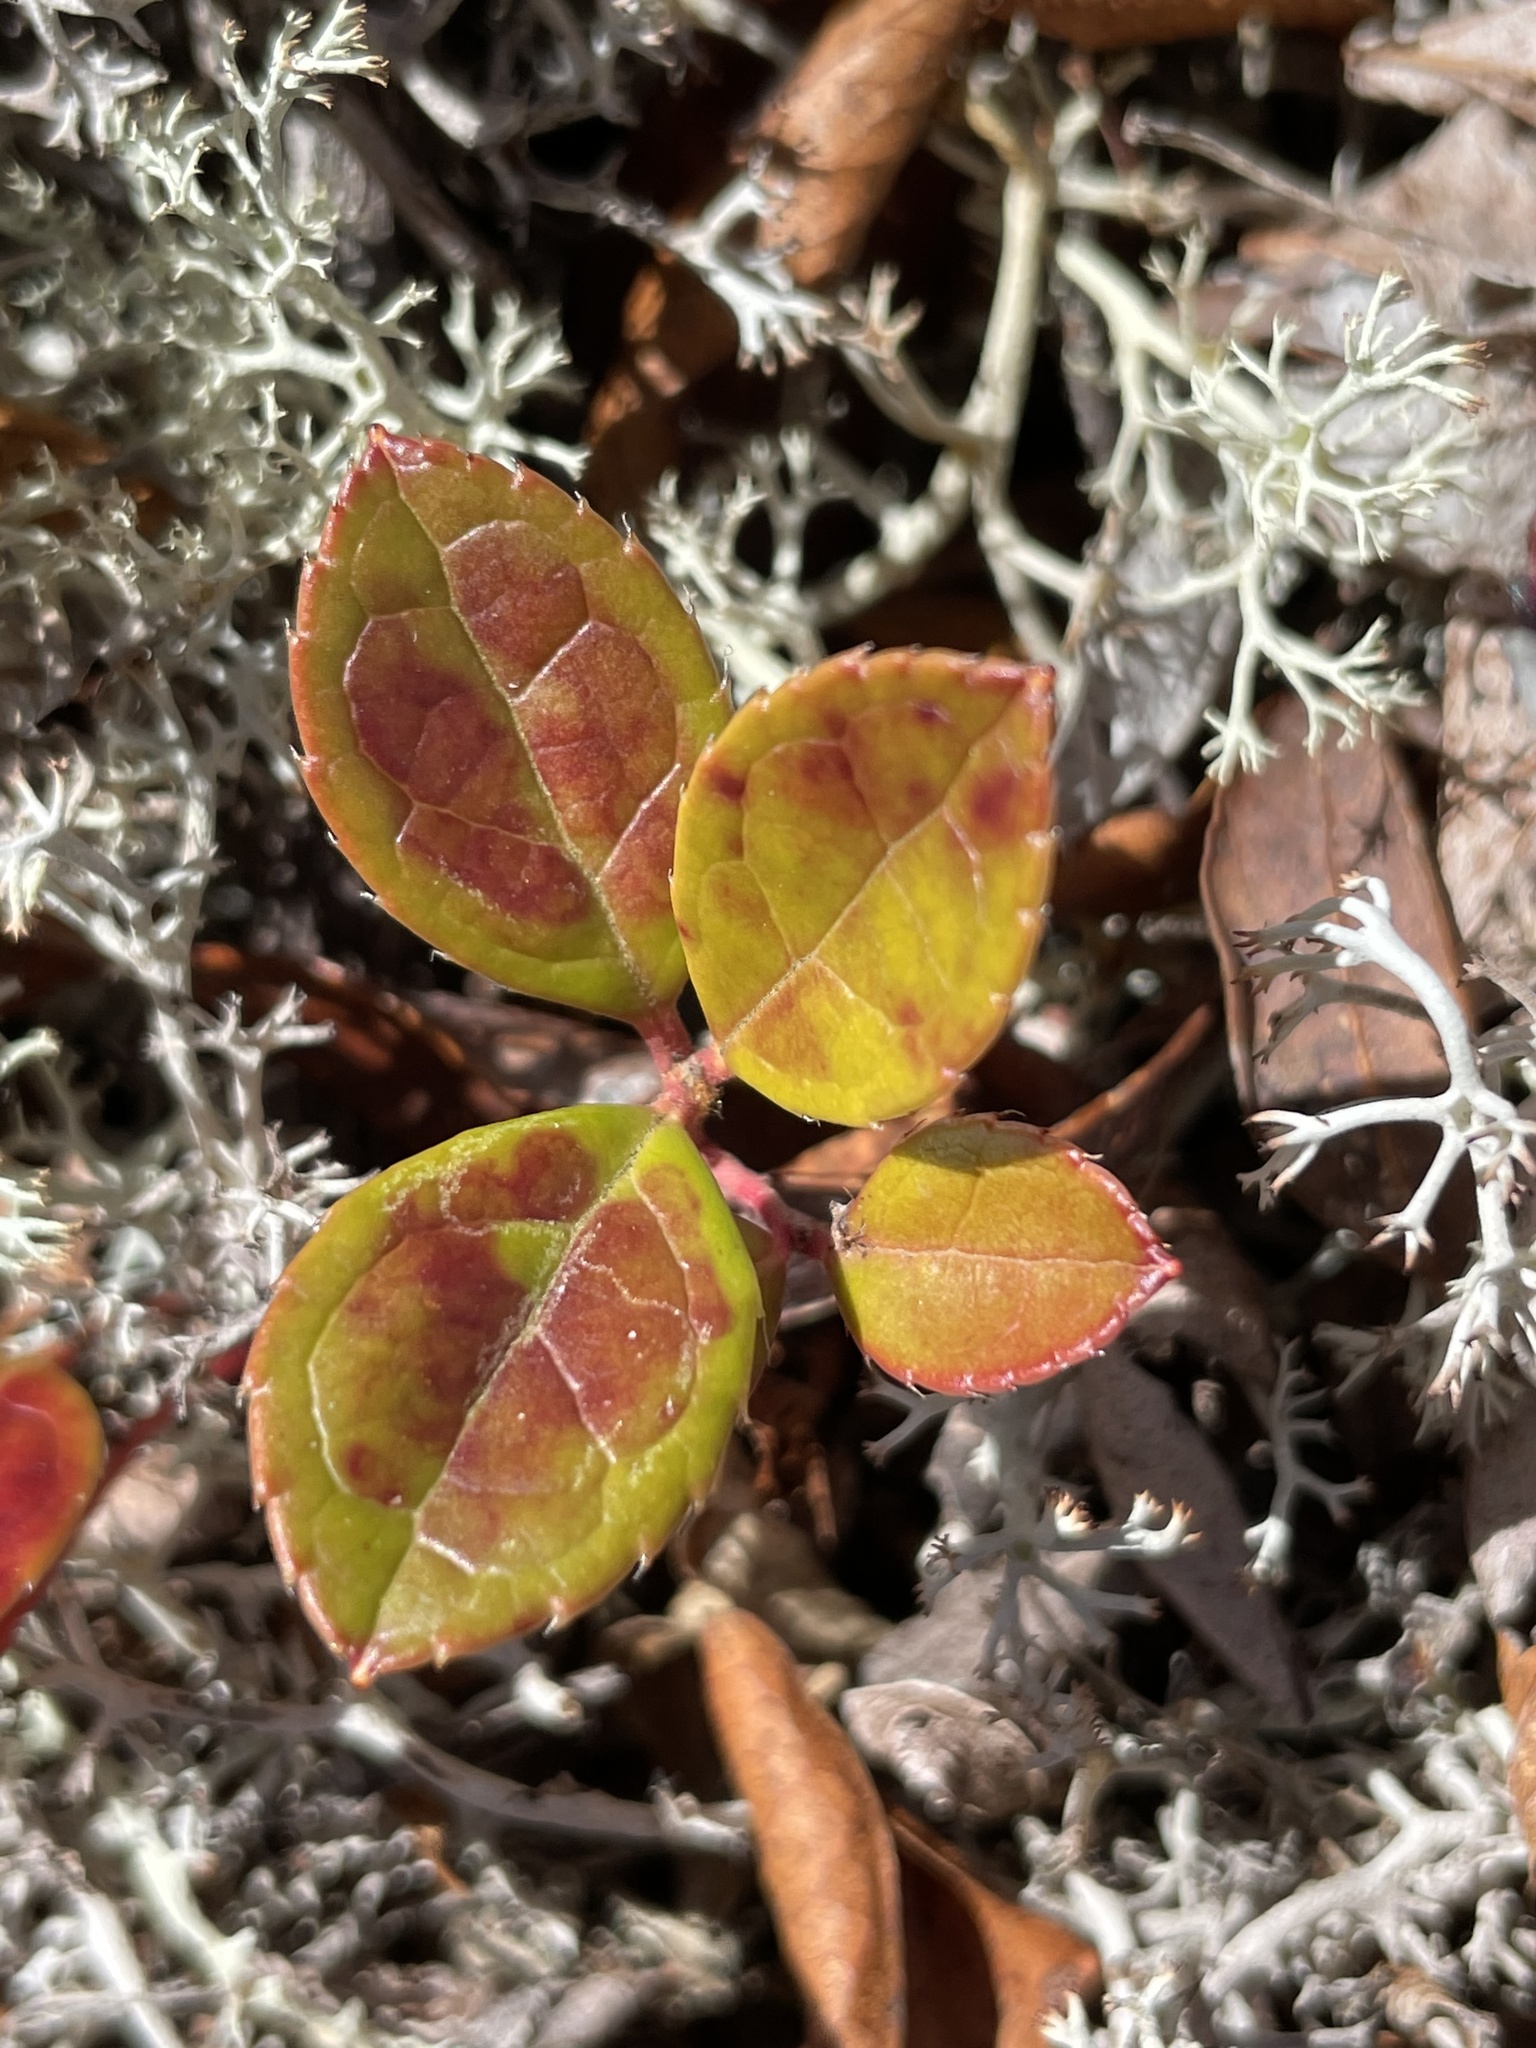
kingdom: Plantae
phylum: Tracheophyta
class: Magnoliopsida
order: Ericales
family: Ericaceae
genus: Gaultheria
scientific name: Gaultheria procumbens
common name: Checkerberry
